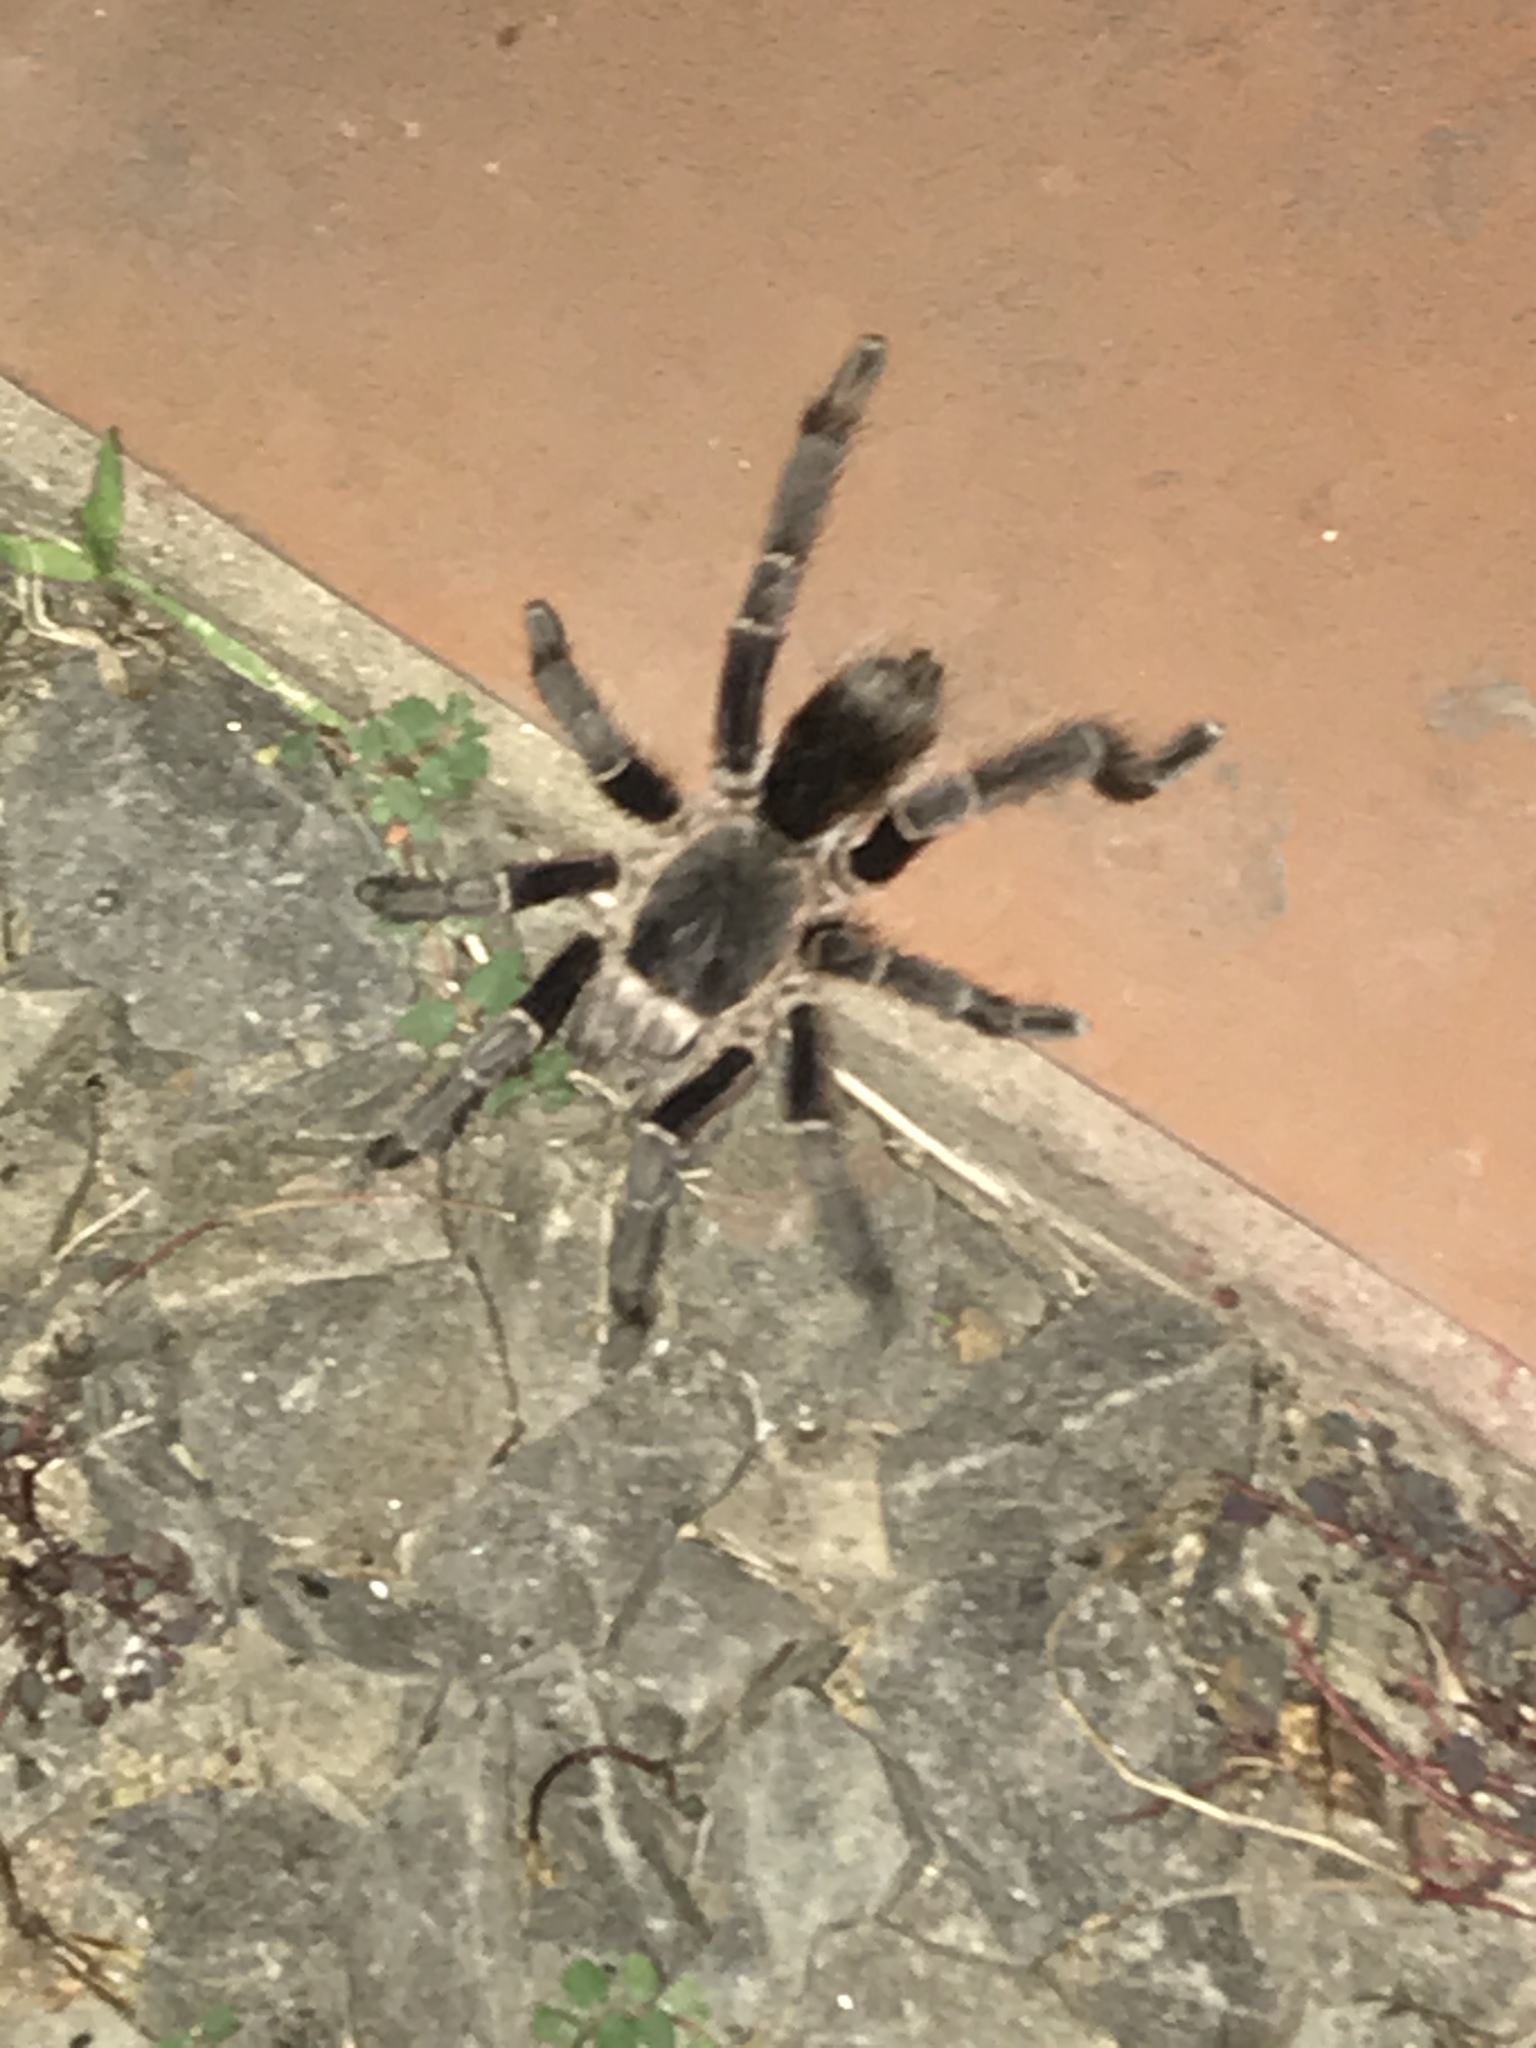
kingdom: Animalia
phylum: Arthropoda
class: Arachnida
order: Araneae
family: Theraphosidae
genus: Eupalaestrus
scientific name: Eupalaestrus weijenberghi
